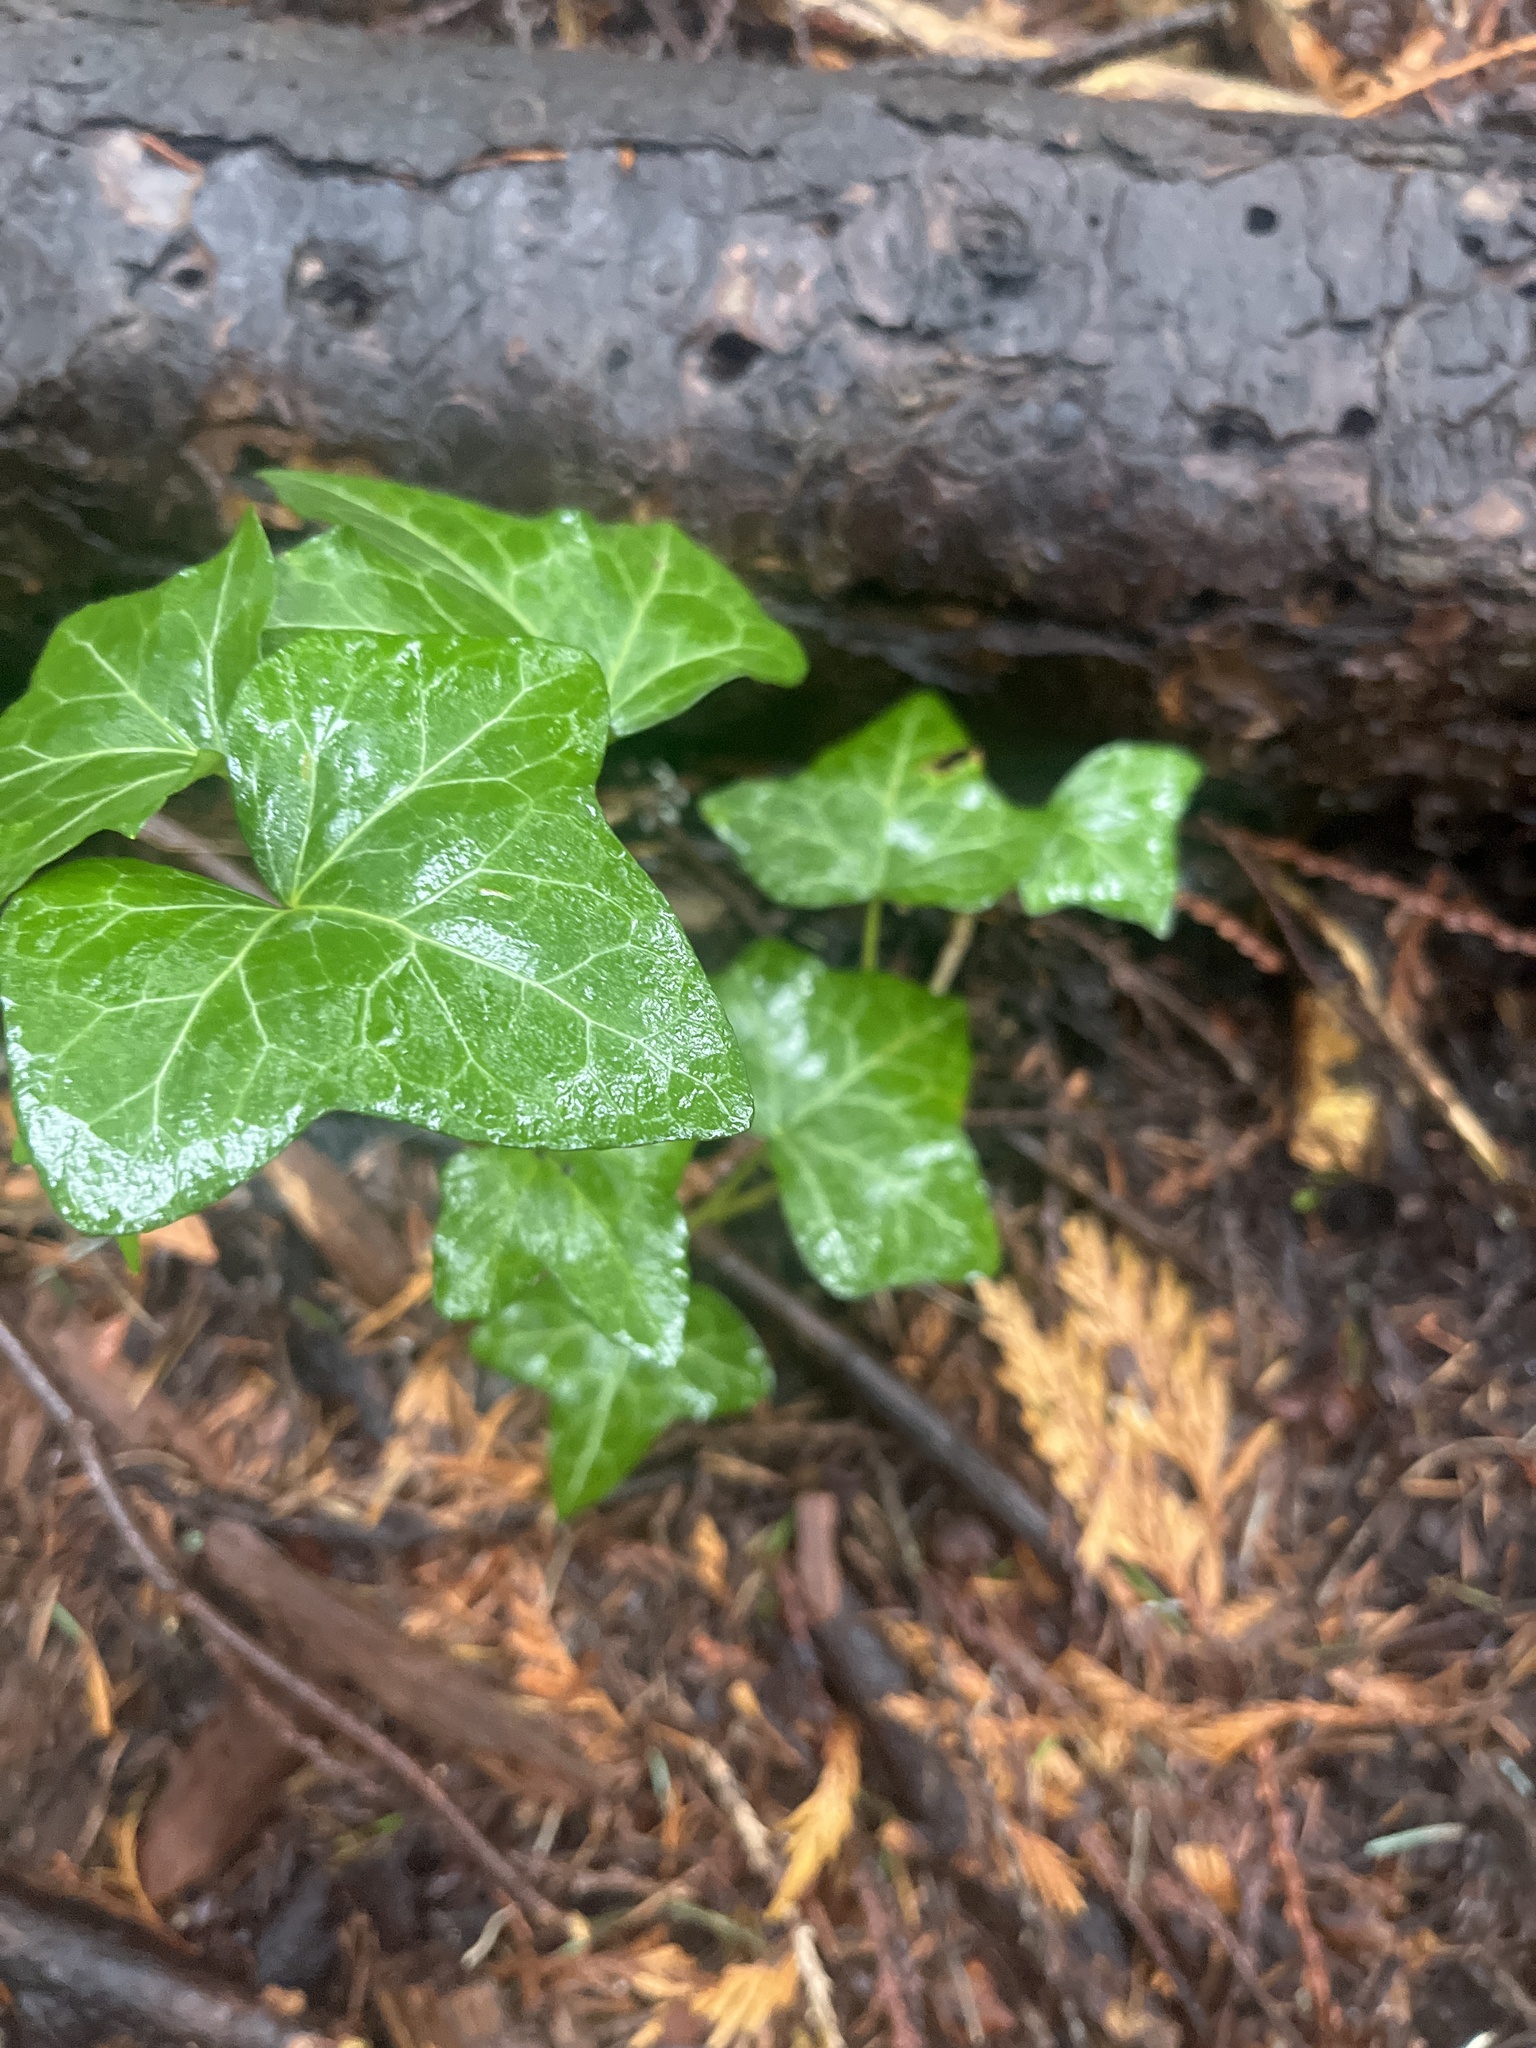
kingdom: Plantae
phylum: Tracheophyta
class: Magnoliopsida
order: Apiales
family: Araliaceae
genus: Hedera
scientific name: Hedera helix
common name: Ivy
